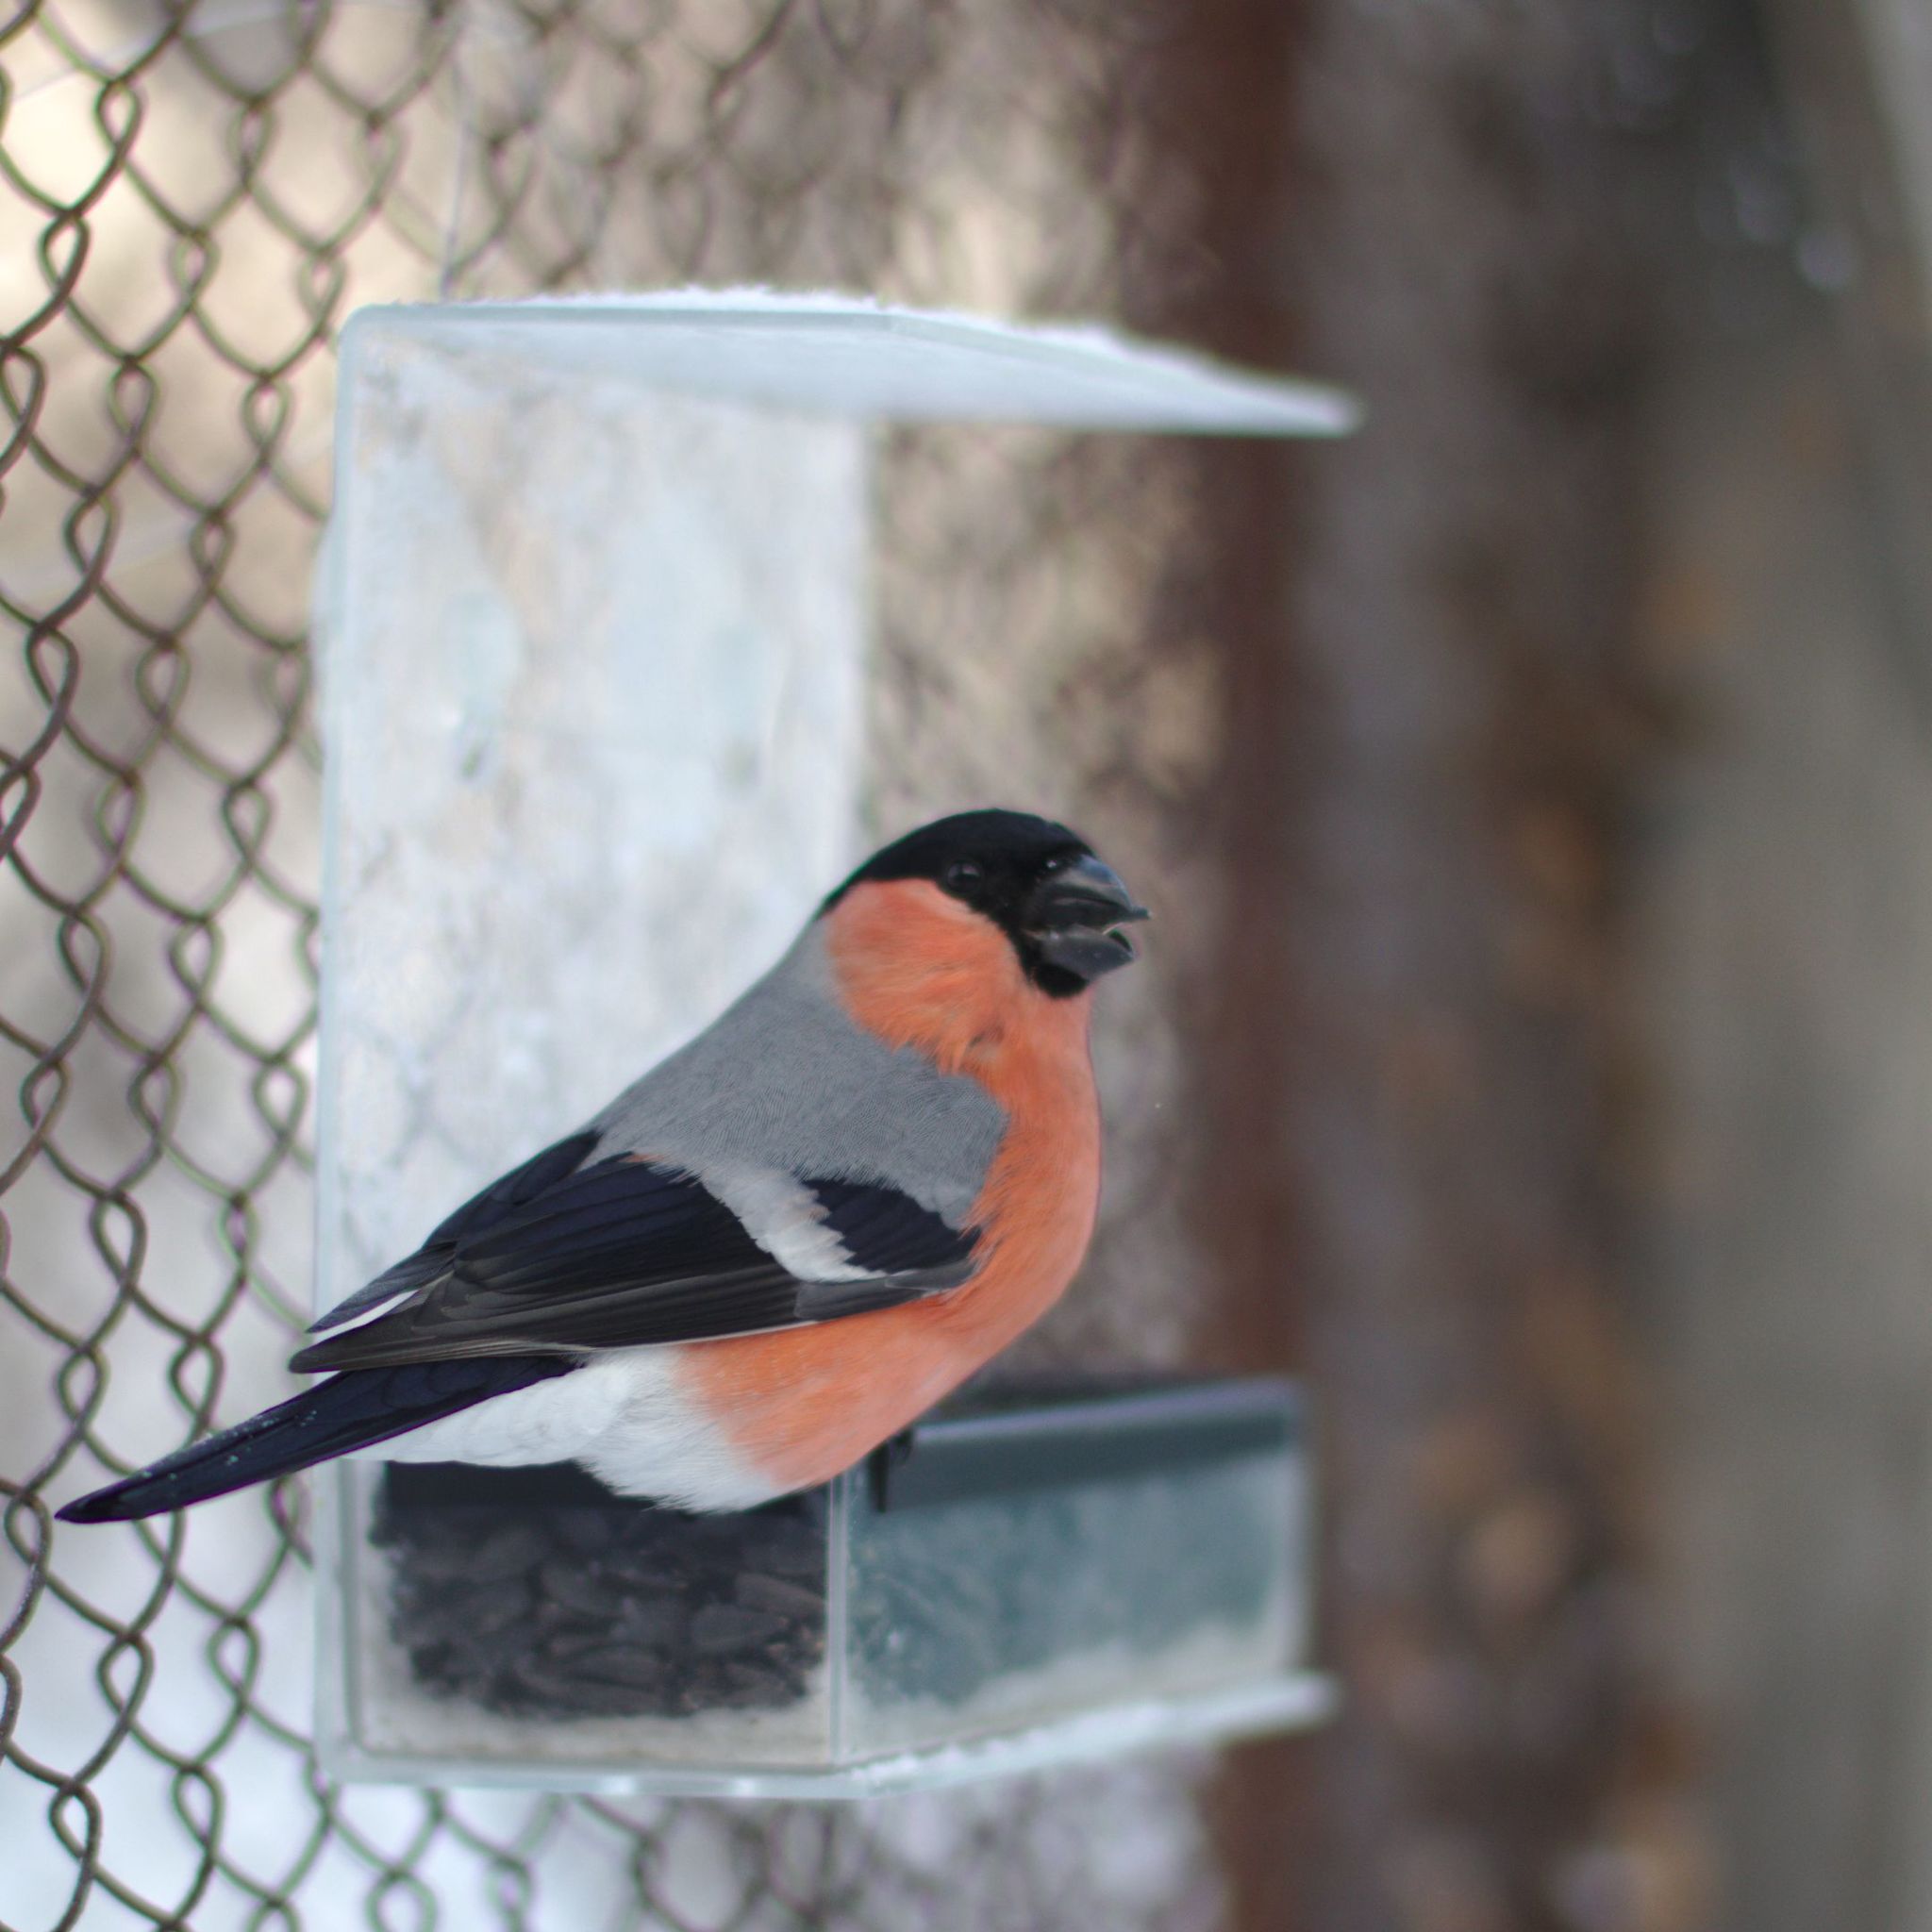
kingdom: Animalia
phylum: Chordata
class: Aves
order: Passeriformes
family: Fringillidae
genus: Pyrrhula
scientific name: Pyrrhula pyrrhula
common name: Eurasian bullfinch
